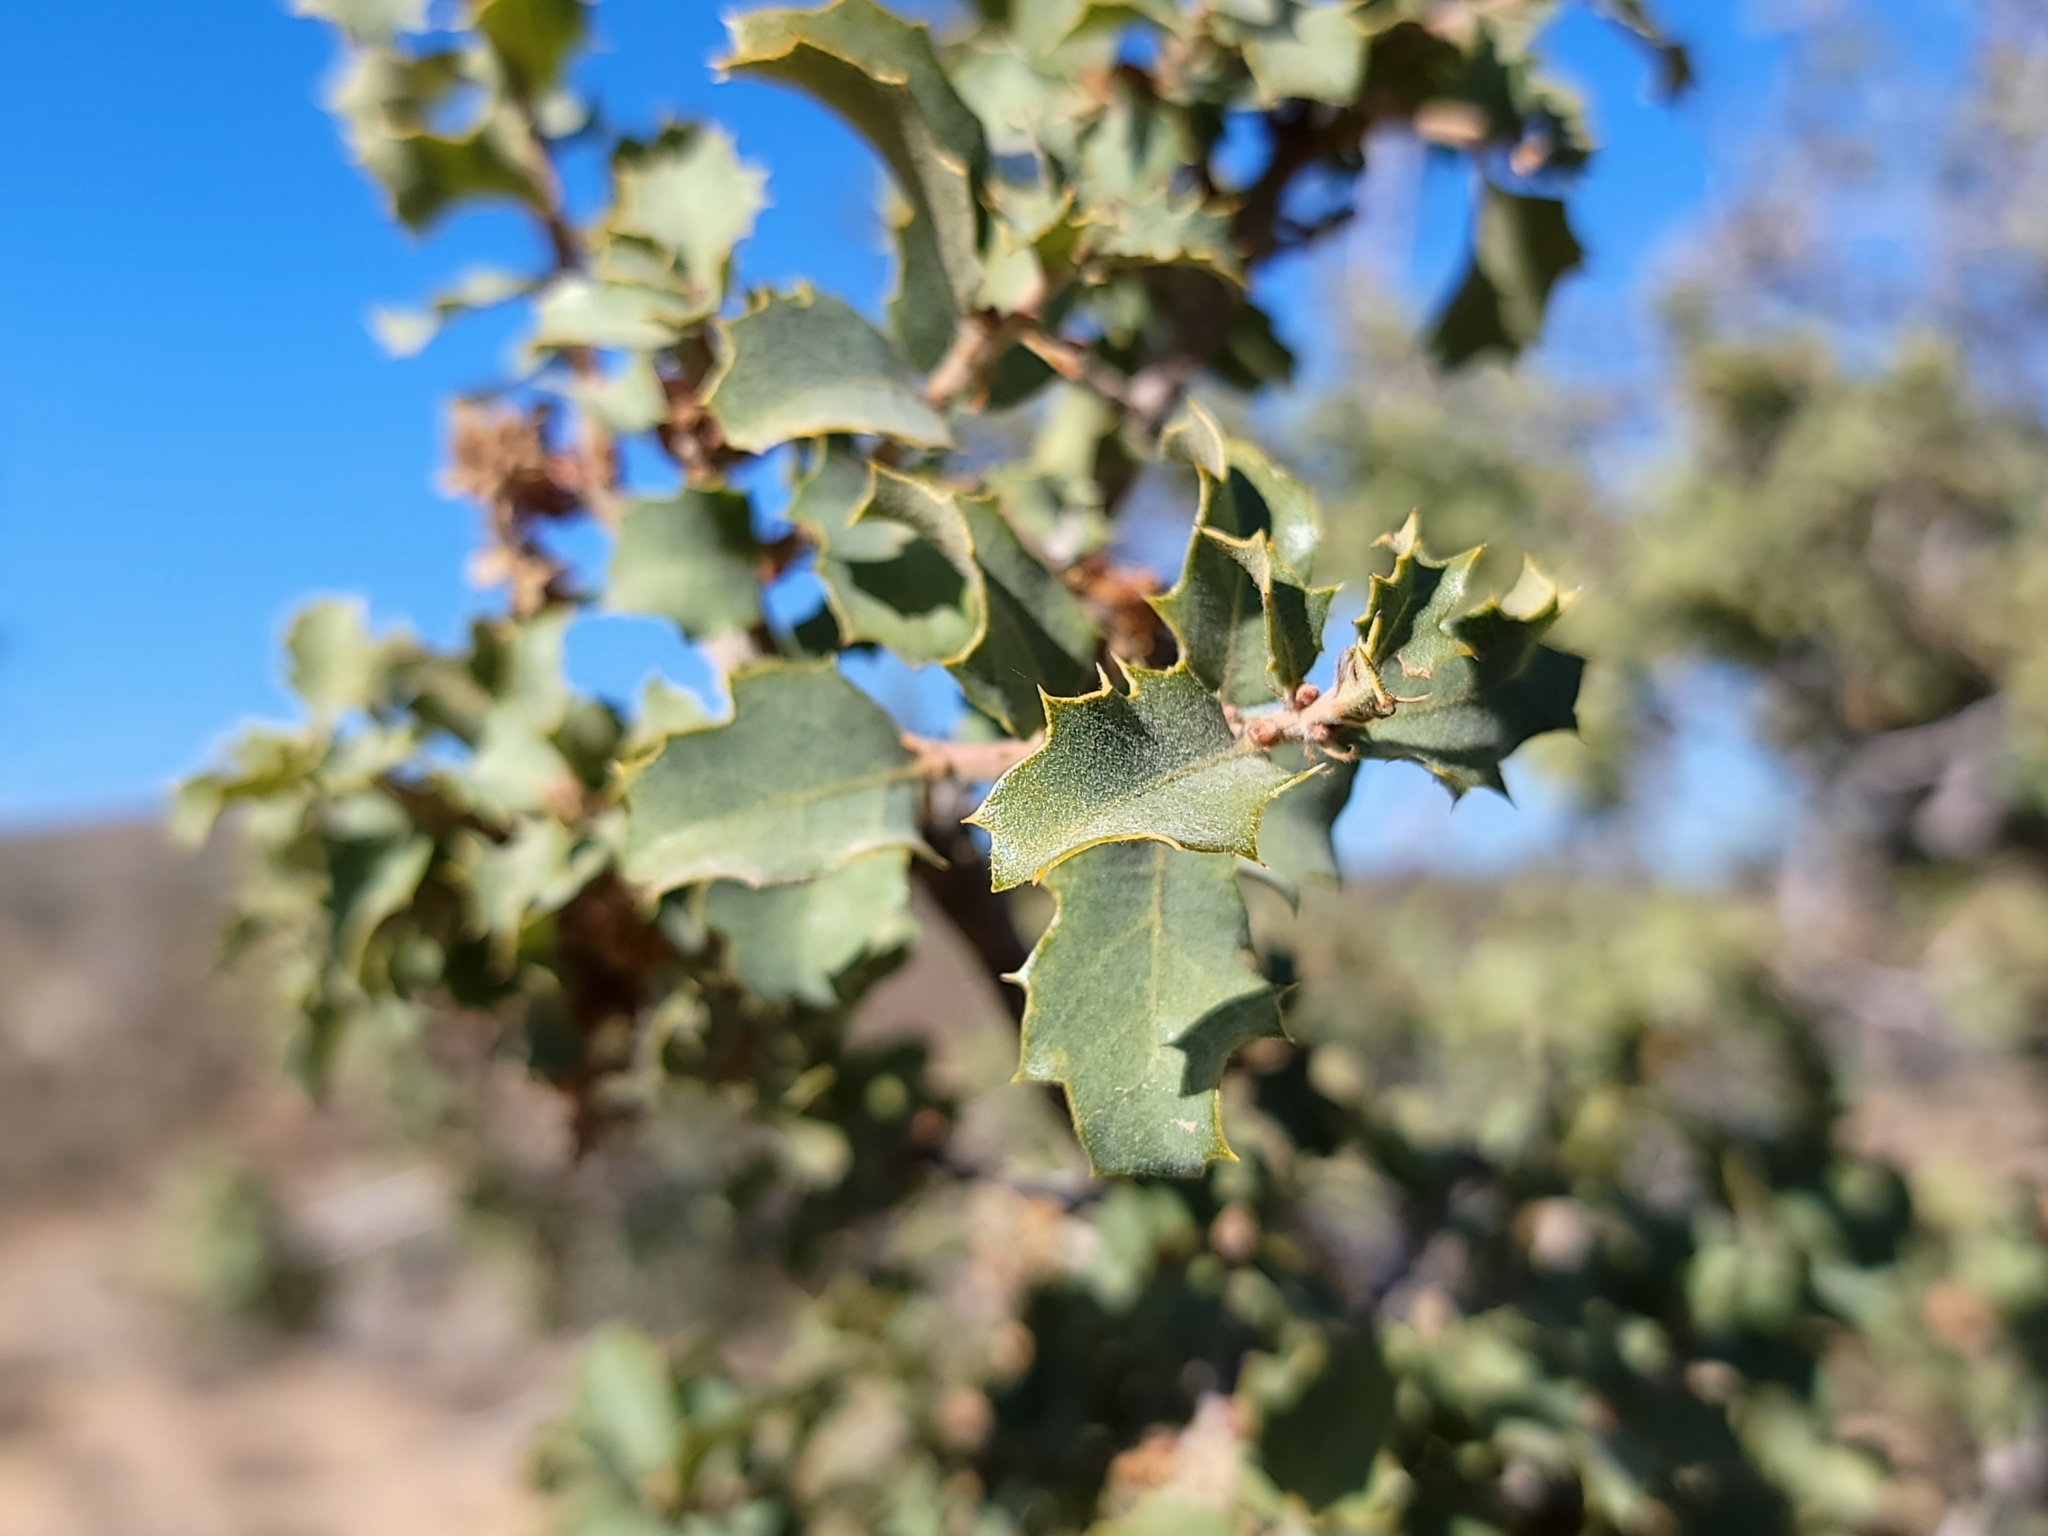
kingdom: Plantae
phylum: Tracheophyta
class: Magnoliopsida
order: Fagales
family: Fagaceae
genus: Quercus
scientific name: Quercus john-tuckeri
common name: Tucker's oak
